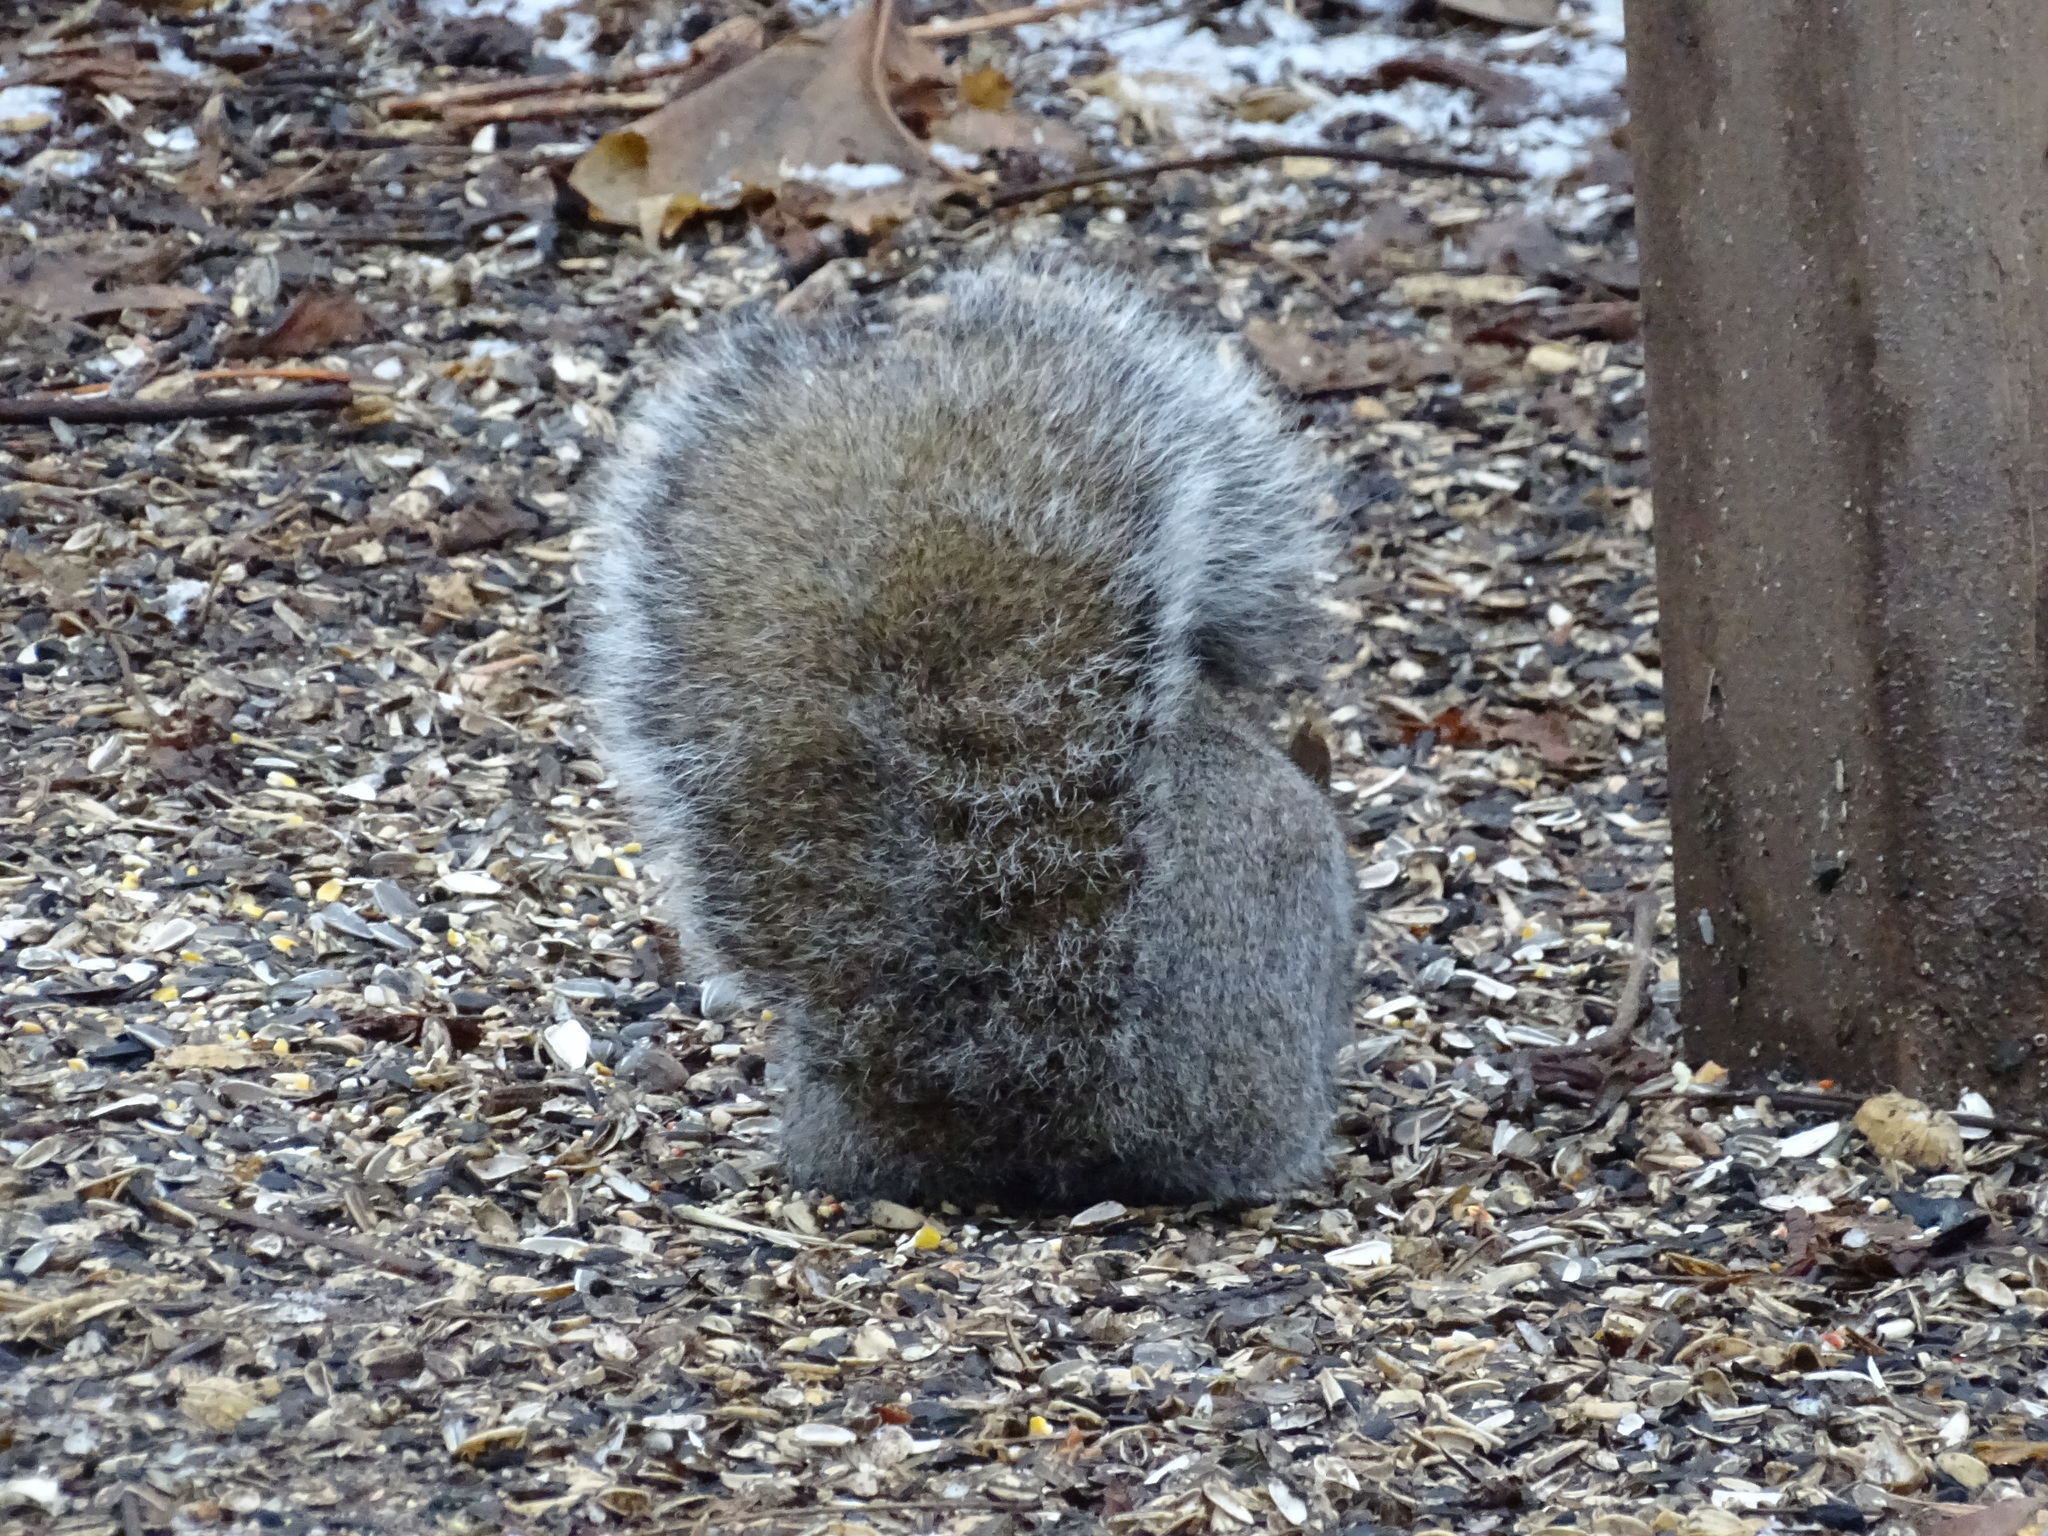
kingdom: Animalia
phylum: Chordata
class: Mammalia
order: Rodentia
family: Sciuridae
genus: Sciurus
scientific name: Sciurus carolinensis
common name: Eastern gray squirrel
